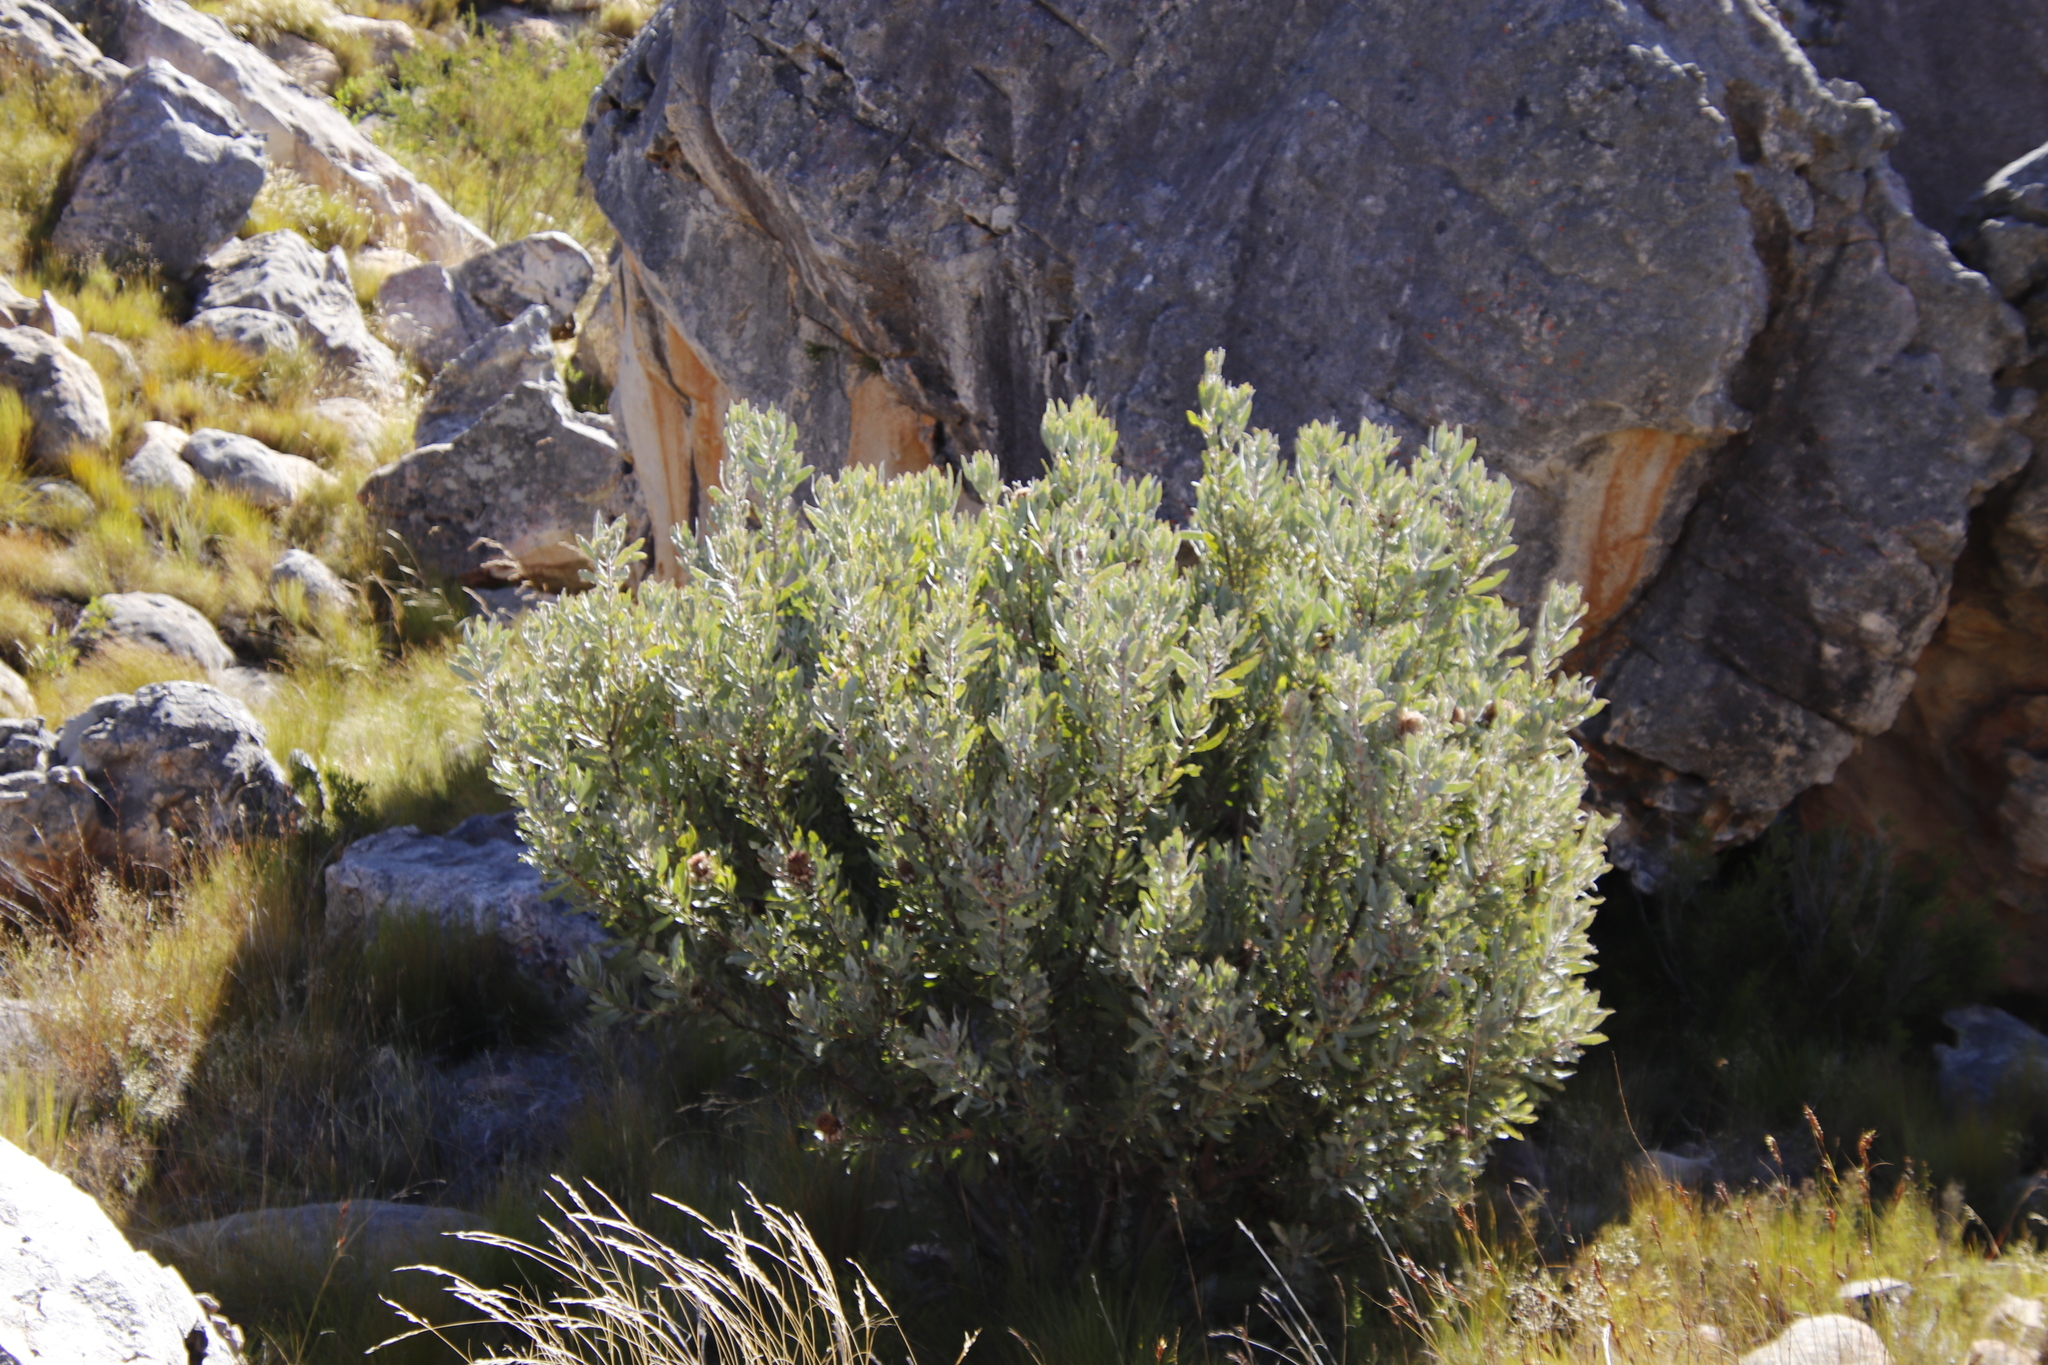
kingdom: Plantae
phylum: Tracheophyta
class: Magnoliopsida
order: Proteales
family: Proteaceae
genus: Protea
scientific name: Protea laurifolia
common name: Grey-leaf sugarbsh
